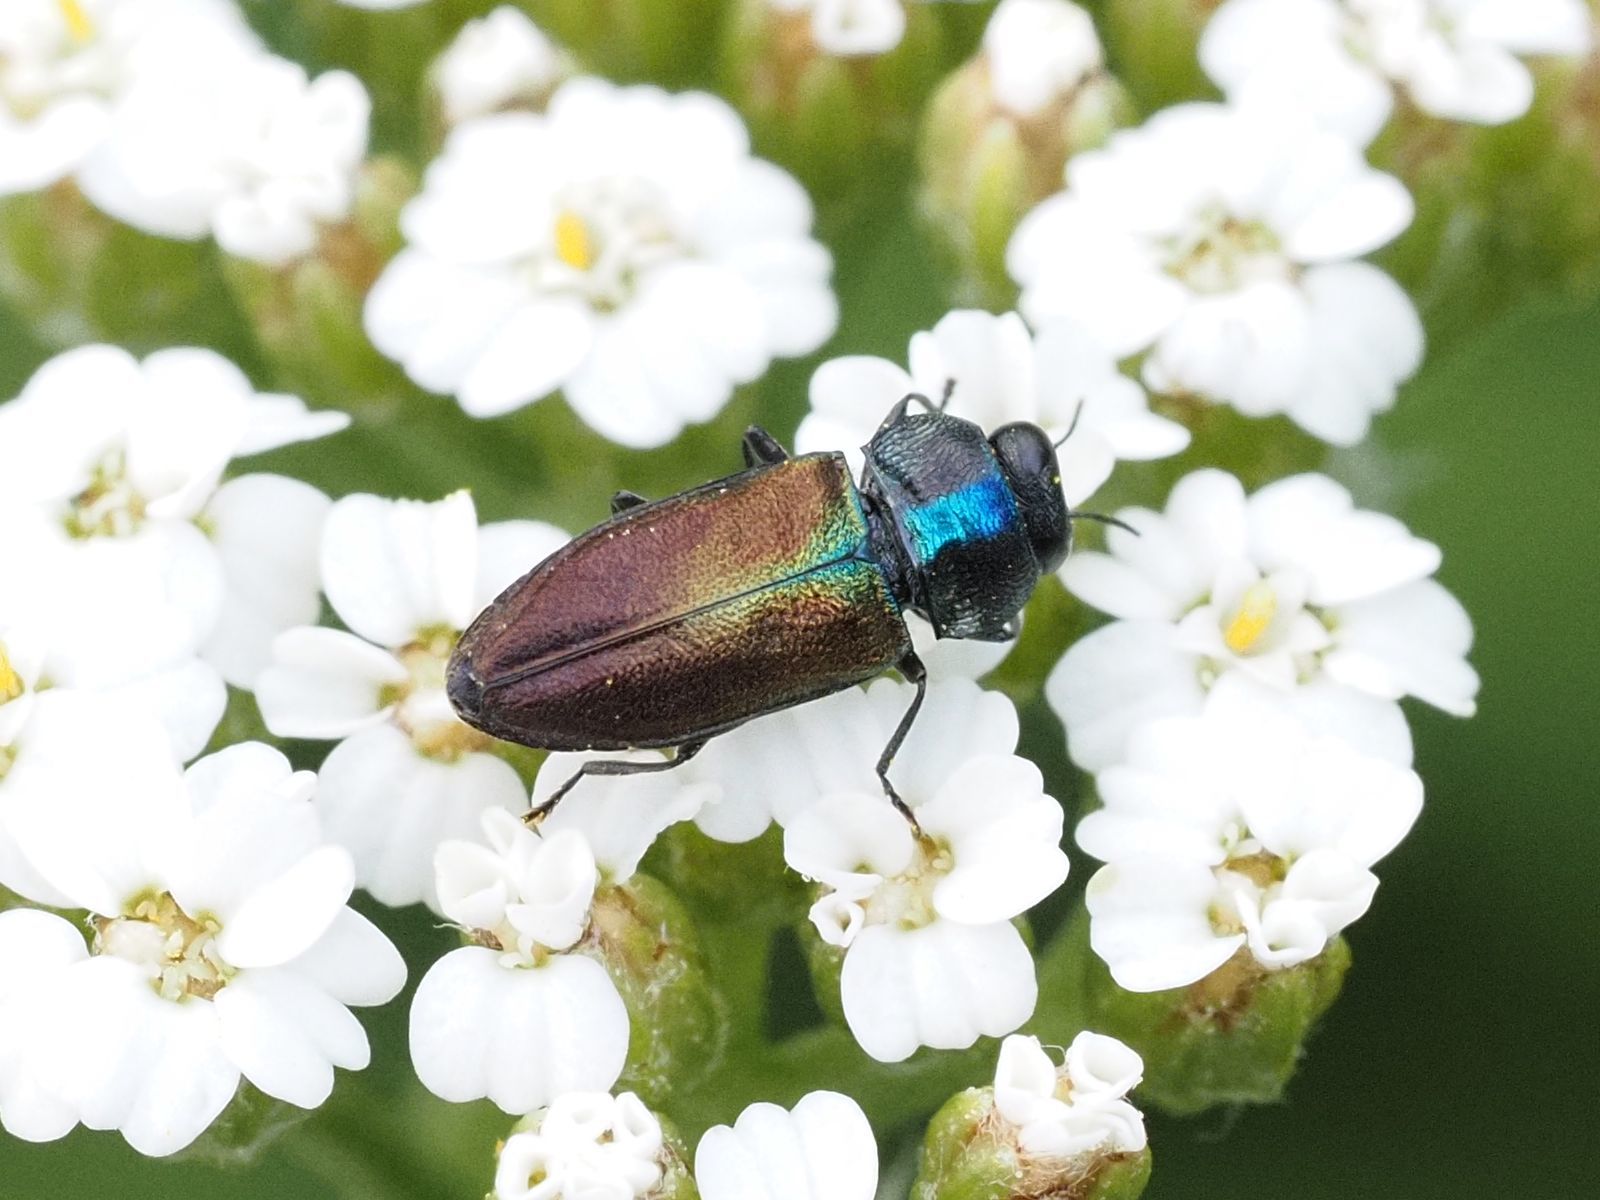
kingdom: Animalia
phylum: Arthropoda
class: Insecta
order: Coleoptera
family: Buprestidae
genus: Anthaxia
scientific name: Anthaxia podolica
